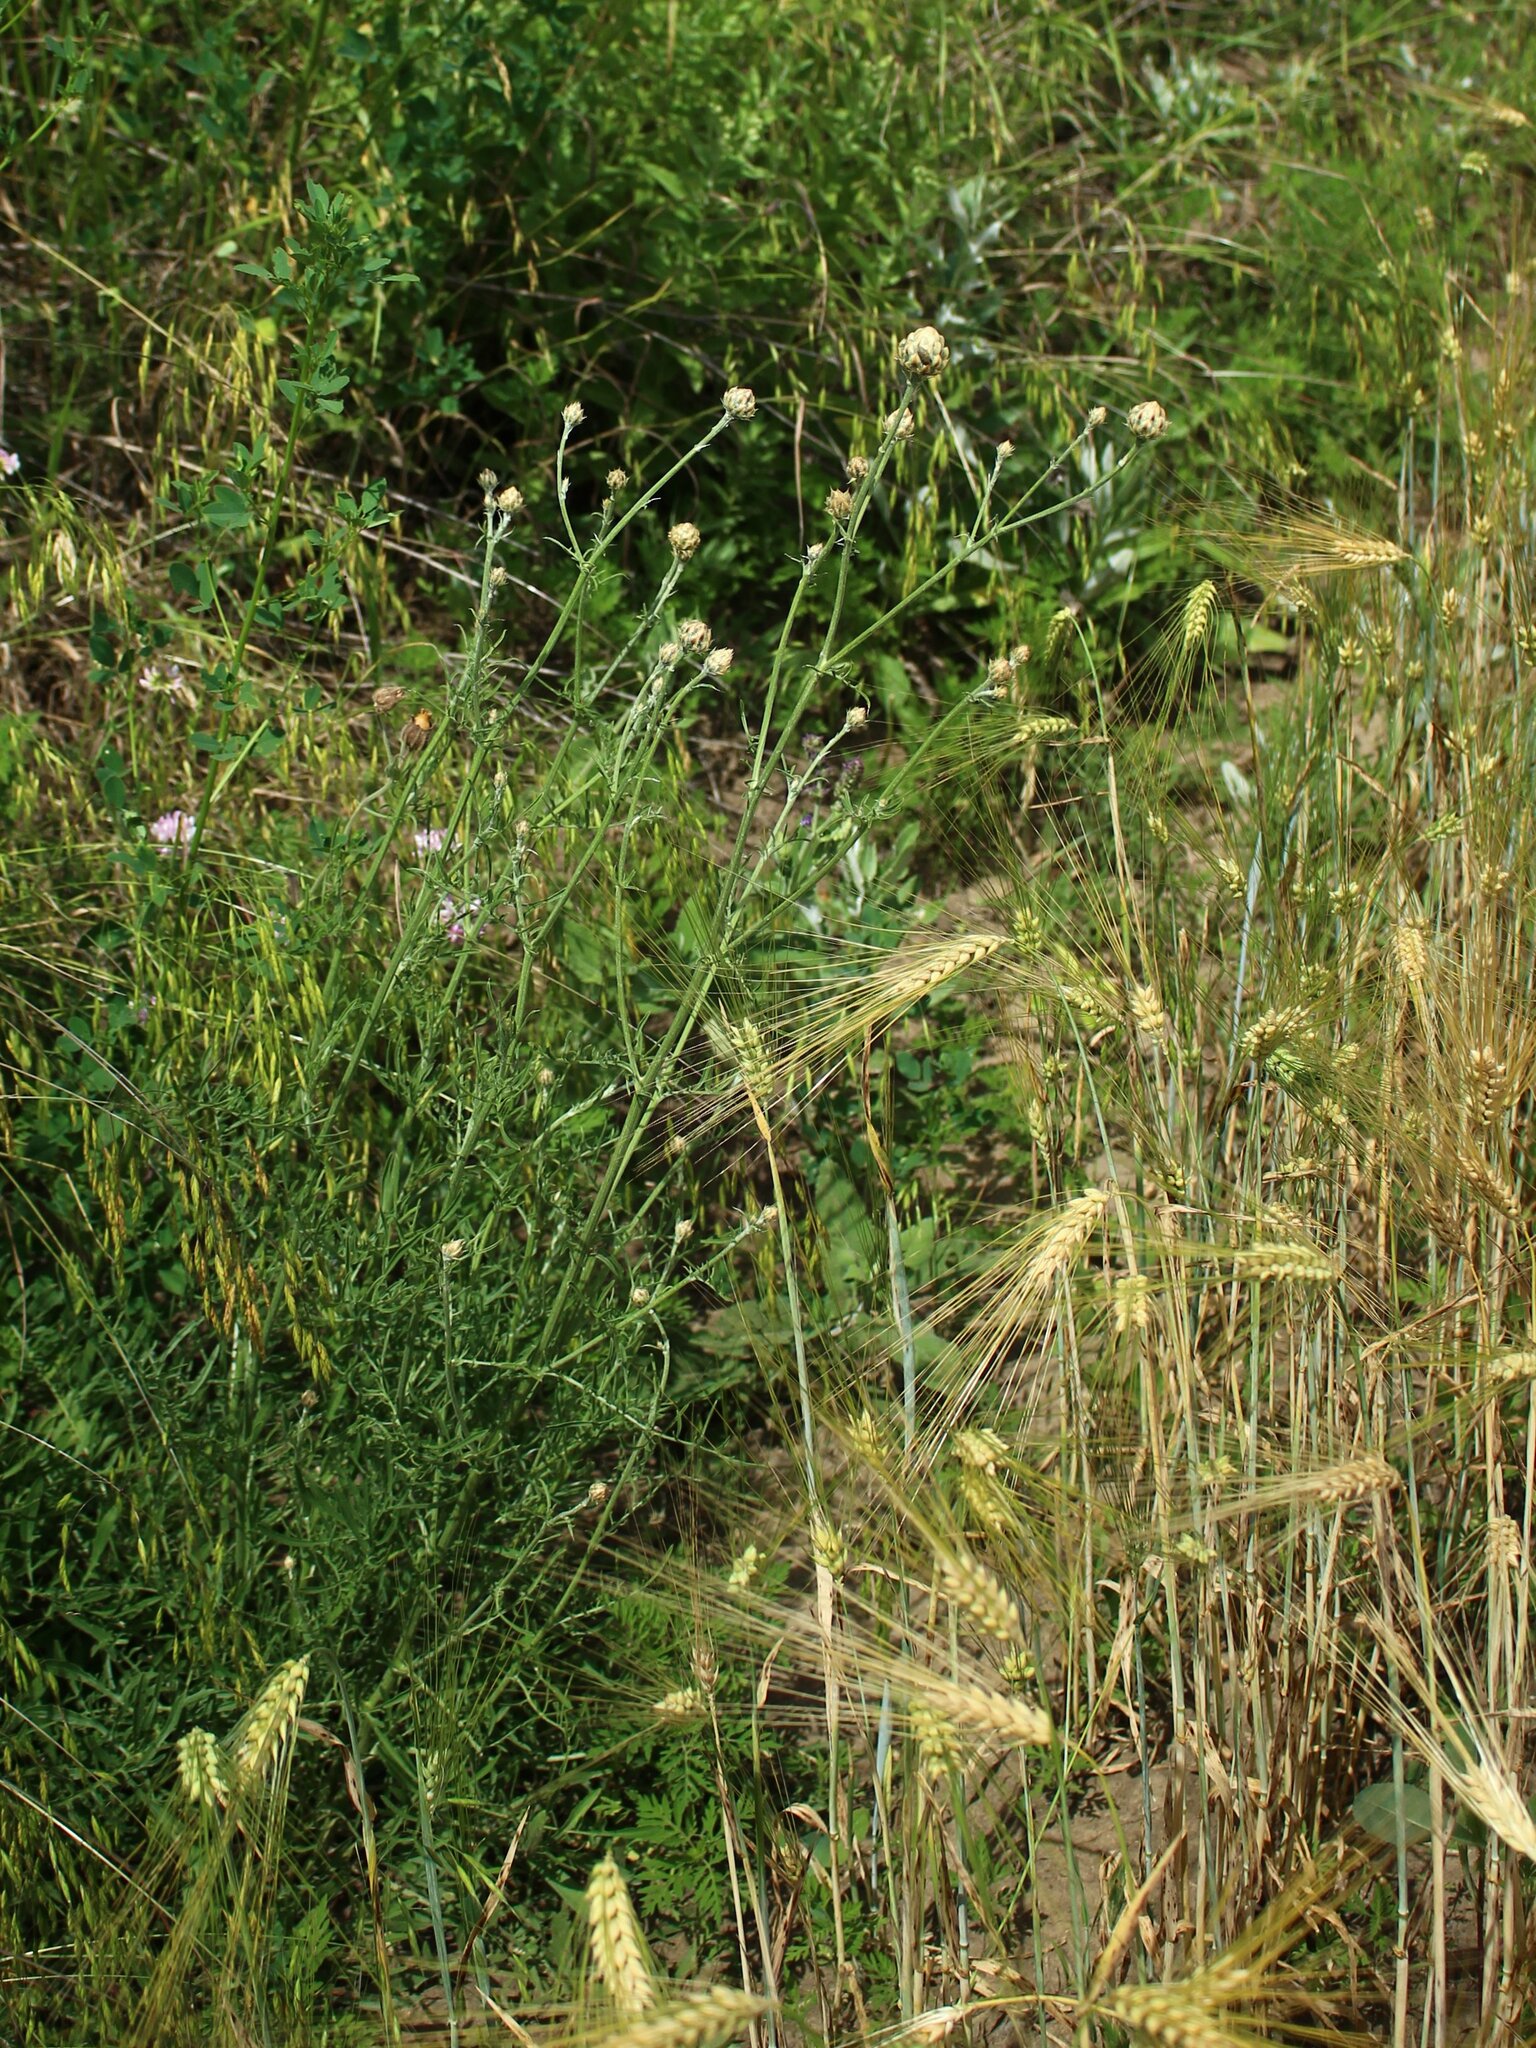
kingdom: Plantae
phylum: Tracheophyta
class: Magnoliopsida
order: Asterales
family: Asteraceae
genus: Centaurea
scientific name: Centaurea orientalis
